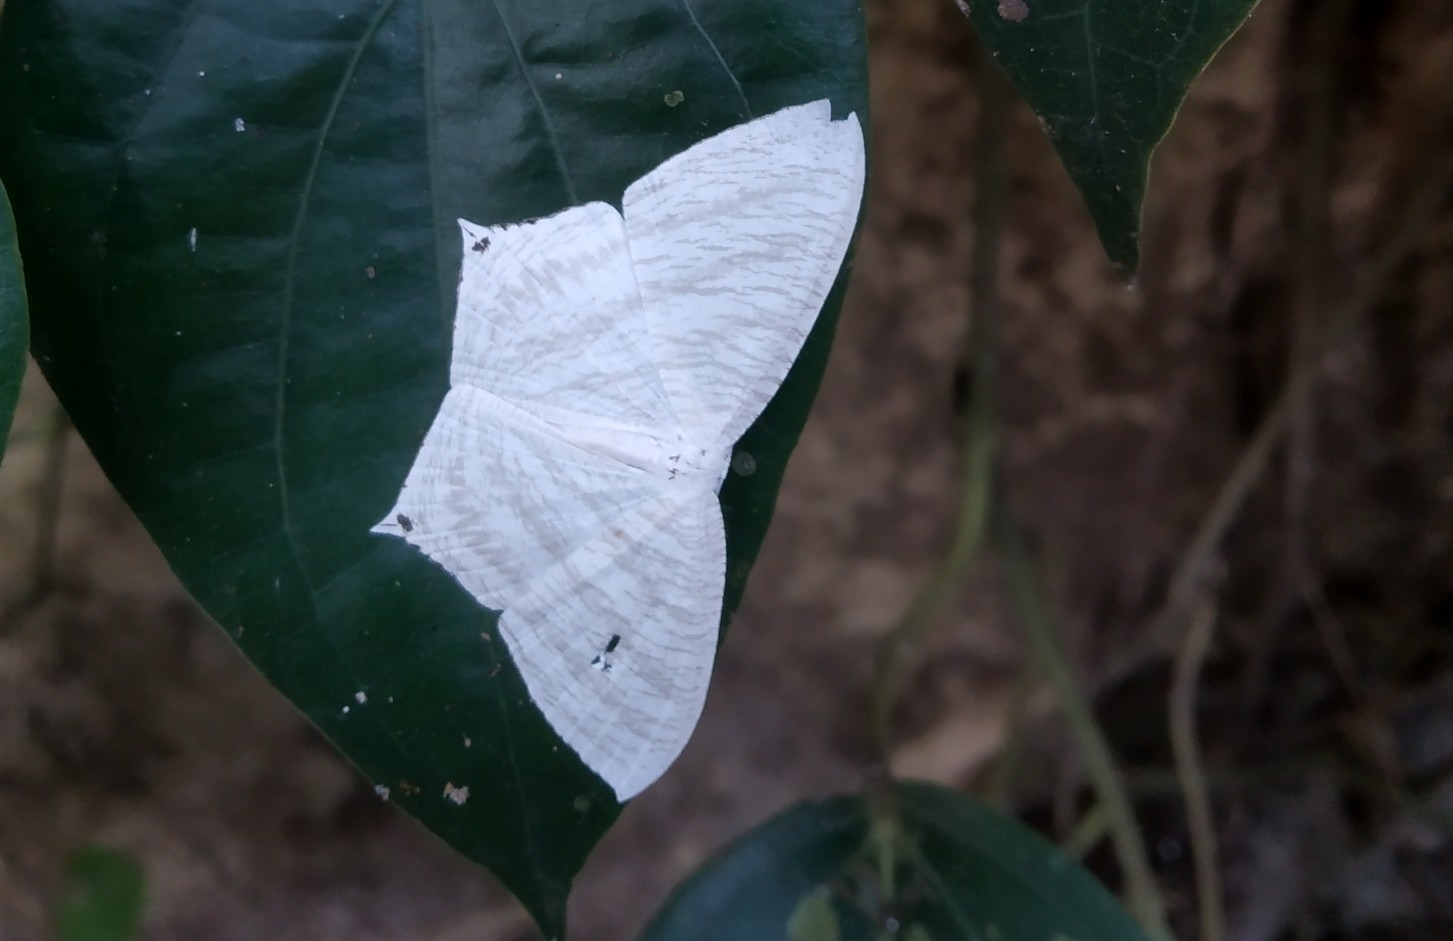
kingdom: Animalia
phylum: Arthropoda
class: Insecta
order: Lepidoptera
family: Uraniidae
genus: Micronia
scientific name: Micronia aculeata
